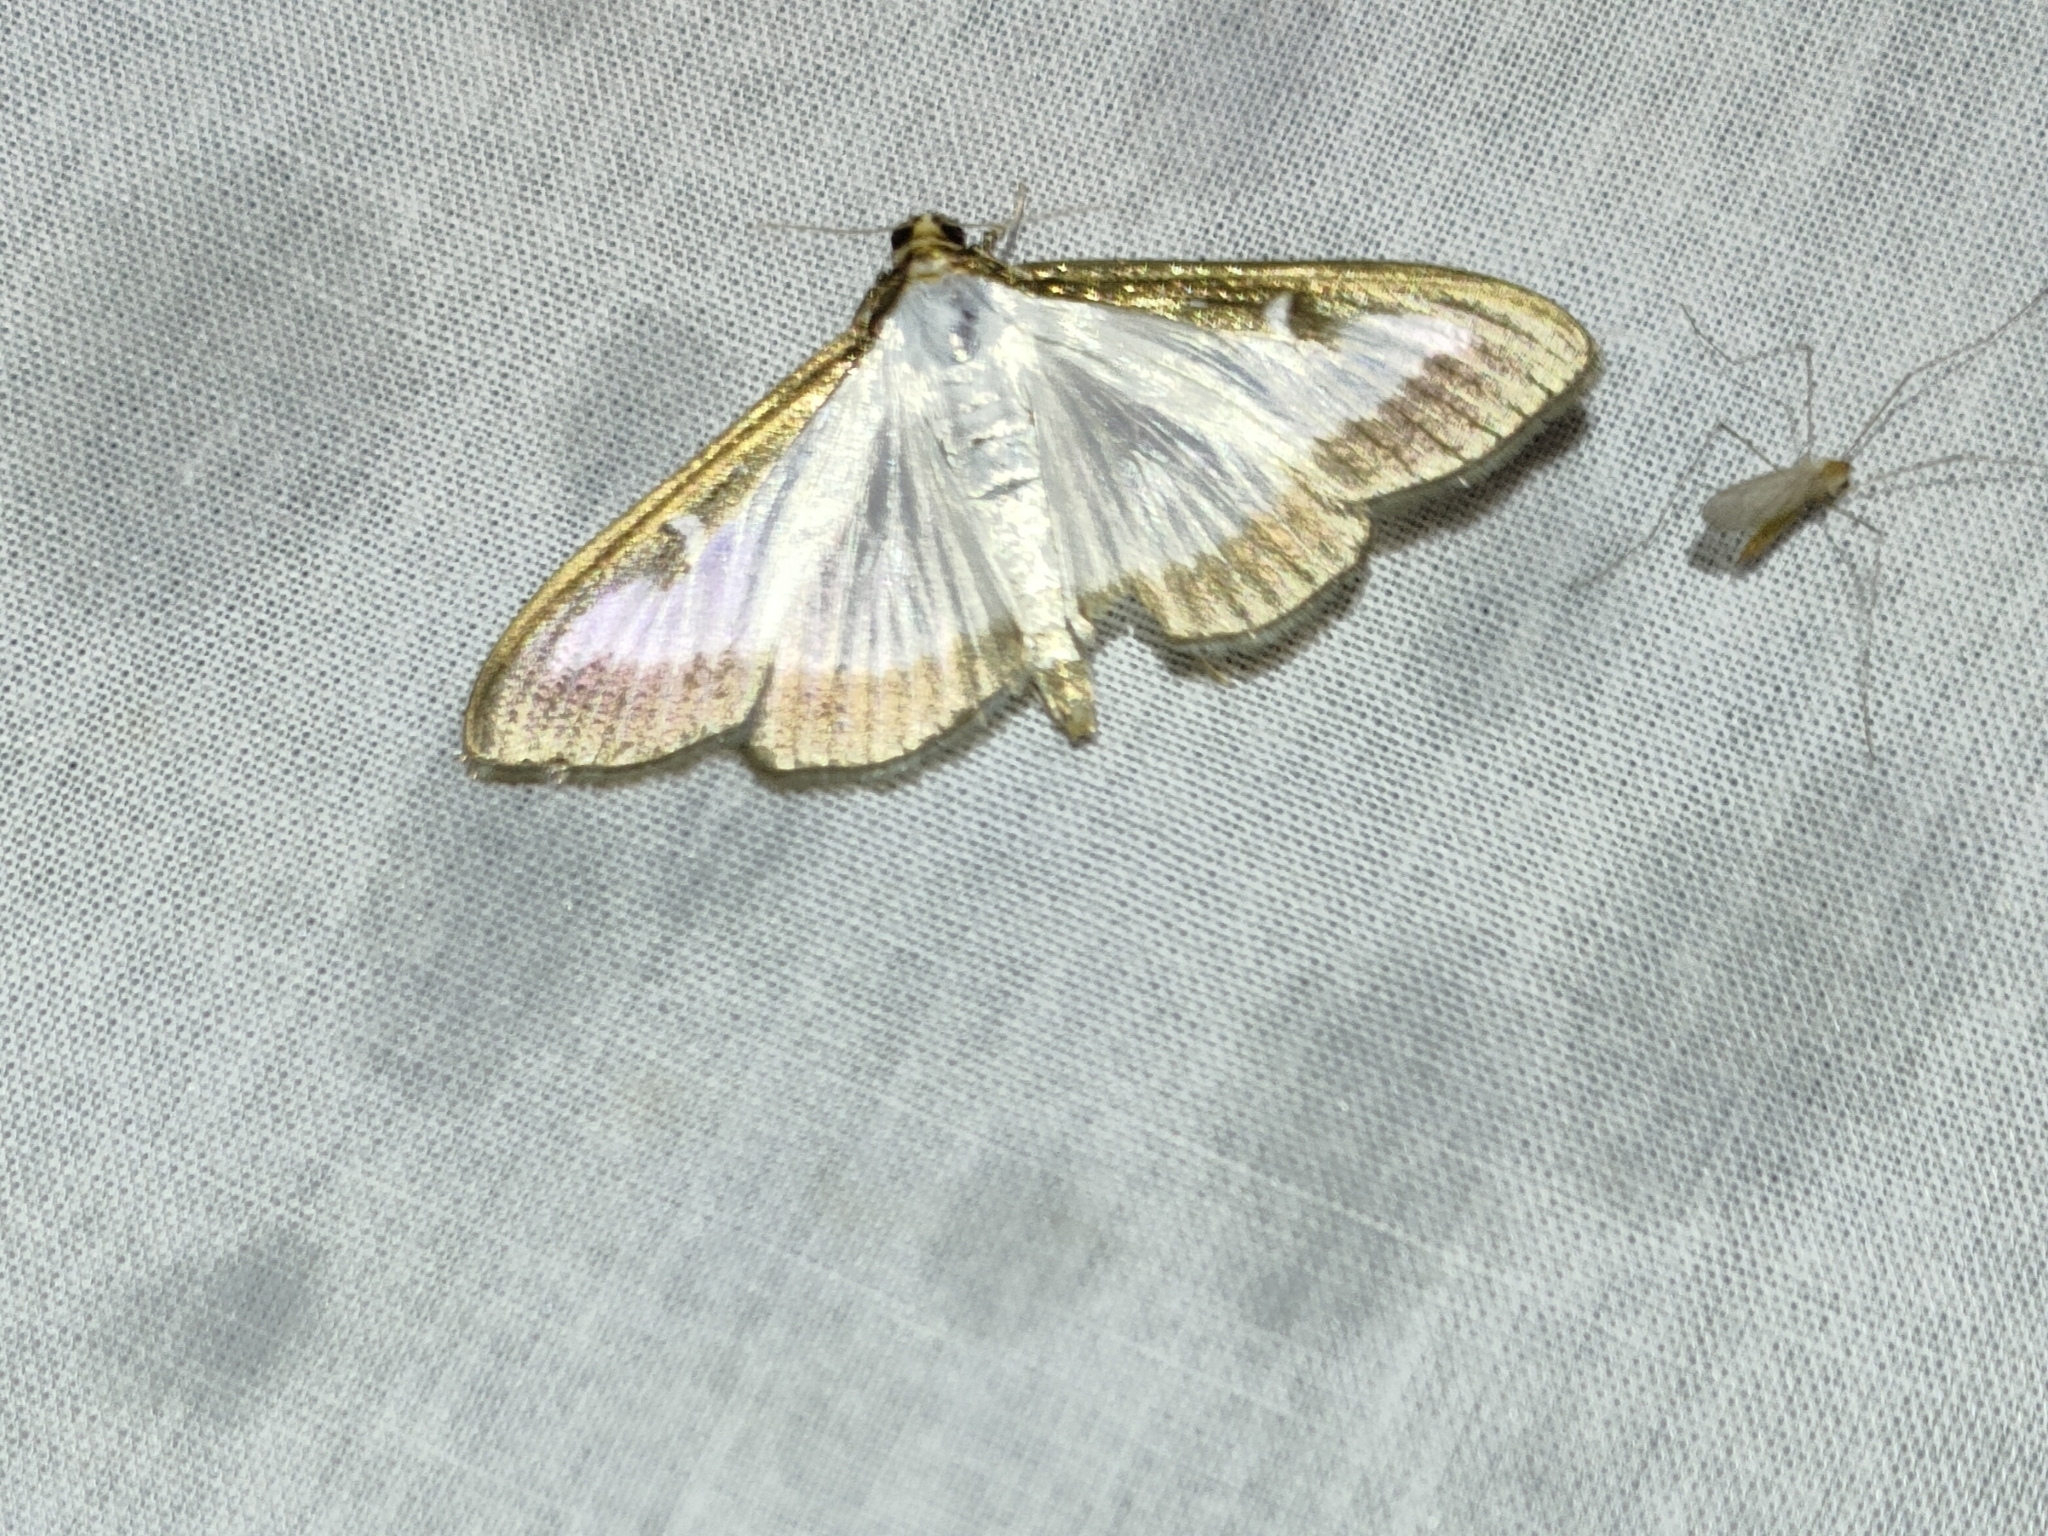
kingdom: Animalia
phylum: Arthropoda
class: Insecta
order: Lepidoptera
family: Crambidae
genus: Cydalima
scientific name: Cydalima perspectalis
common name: Box tree moth
